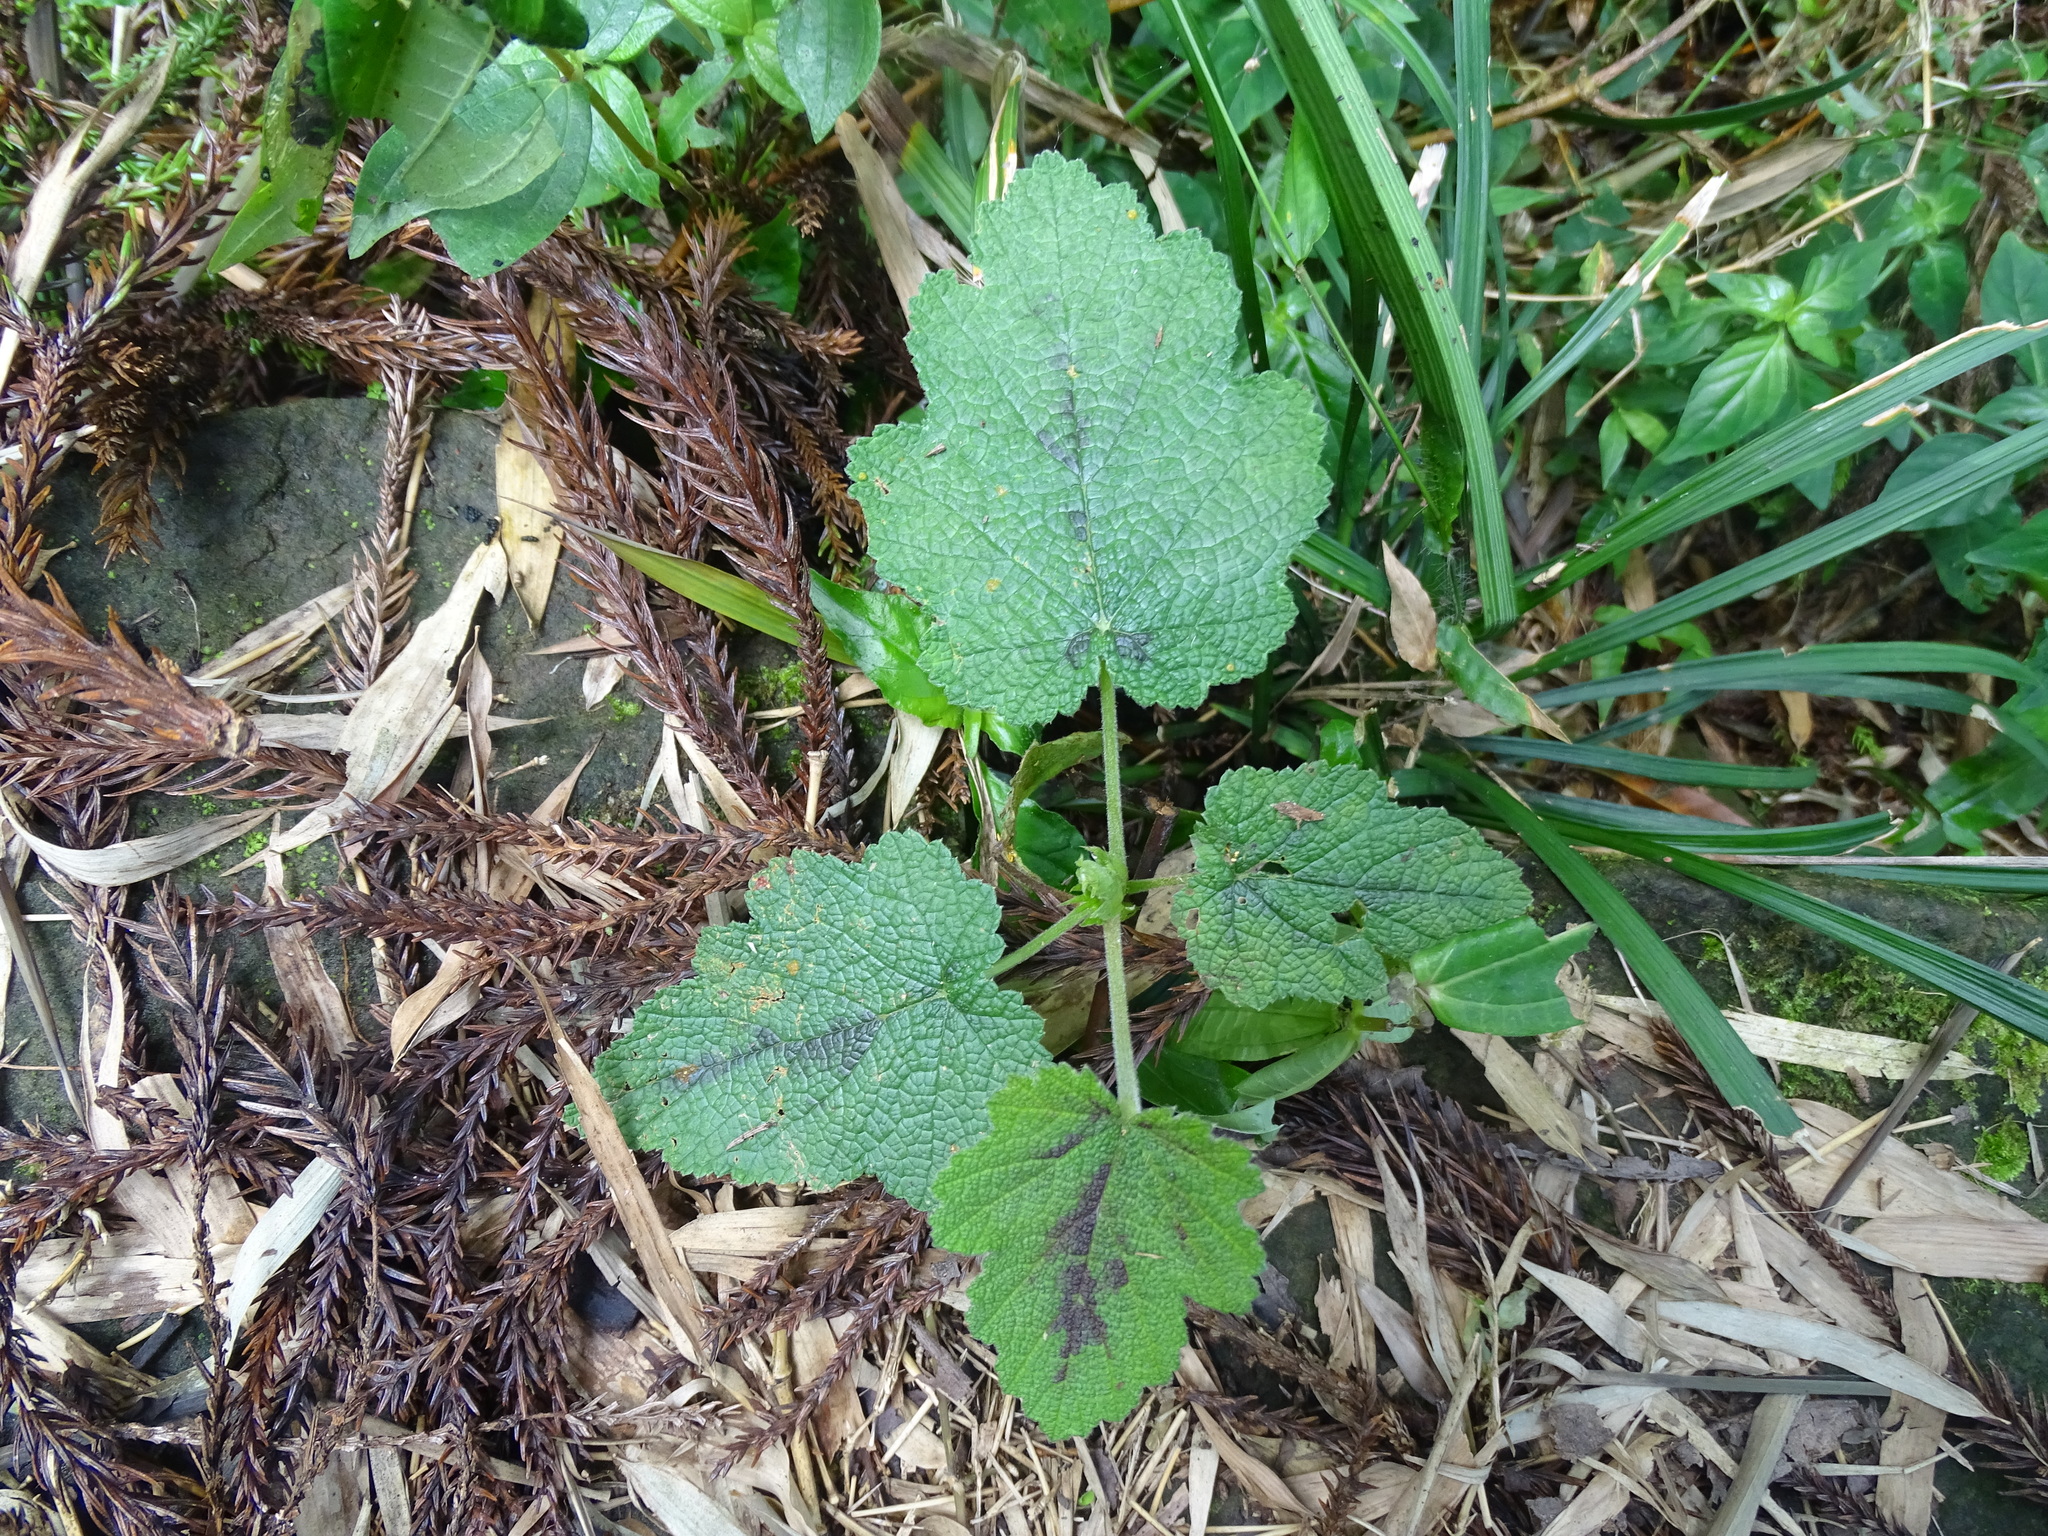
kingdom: Plantae
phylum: Tracheophyta
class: Magnoliopsida
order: Rosales
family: Rosaceae
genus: Rubus
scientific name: Rubus formosensis
